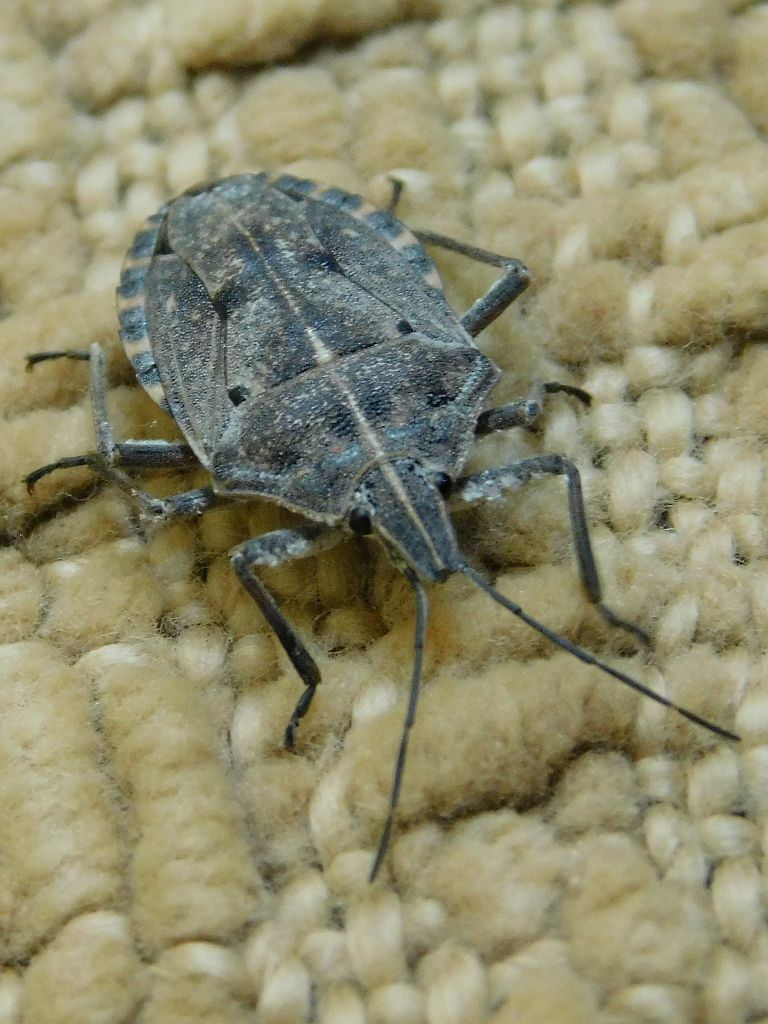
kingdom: Animalia
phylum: Arthropoda
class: Insecta
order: Hemiptera
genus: Peltasticus
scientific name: Peltasticus
